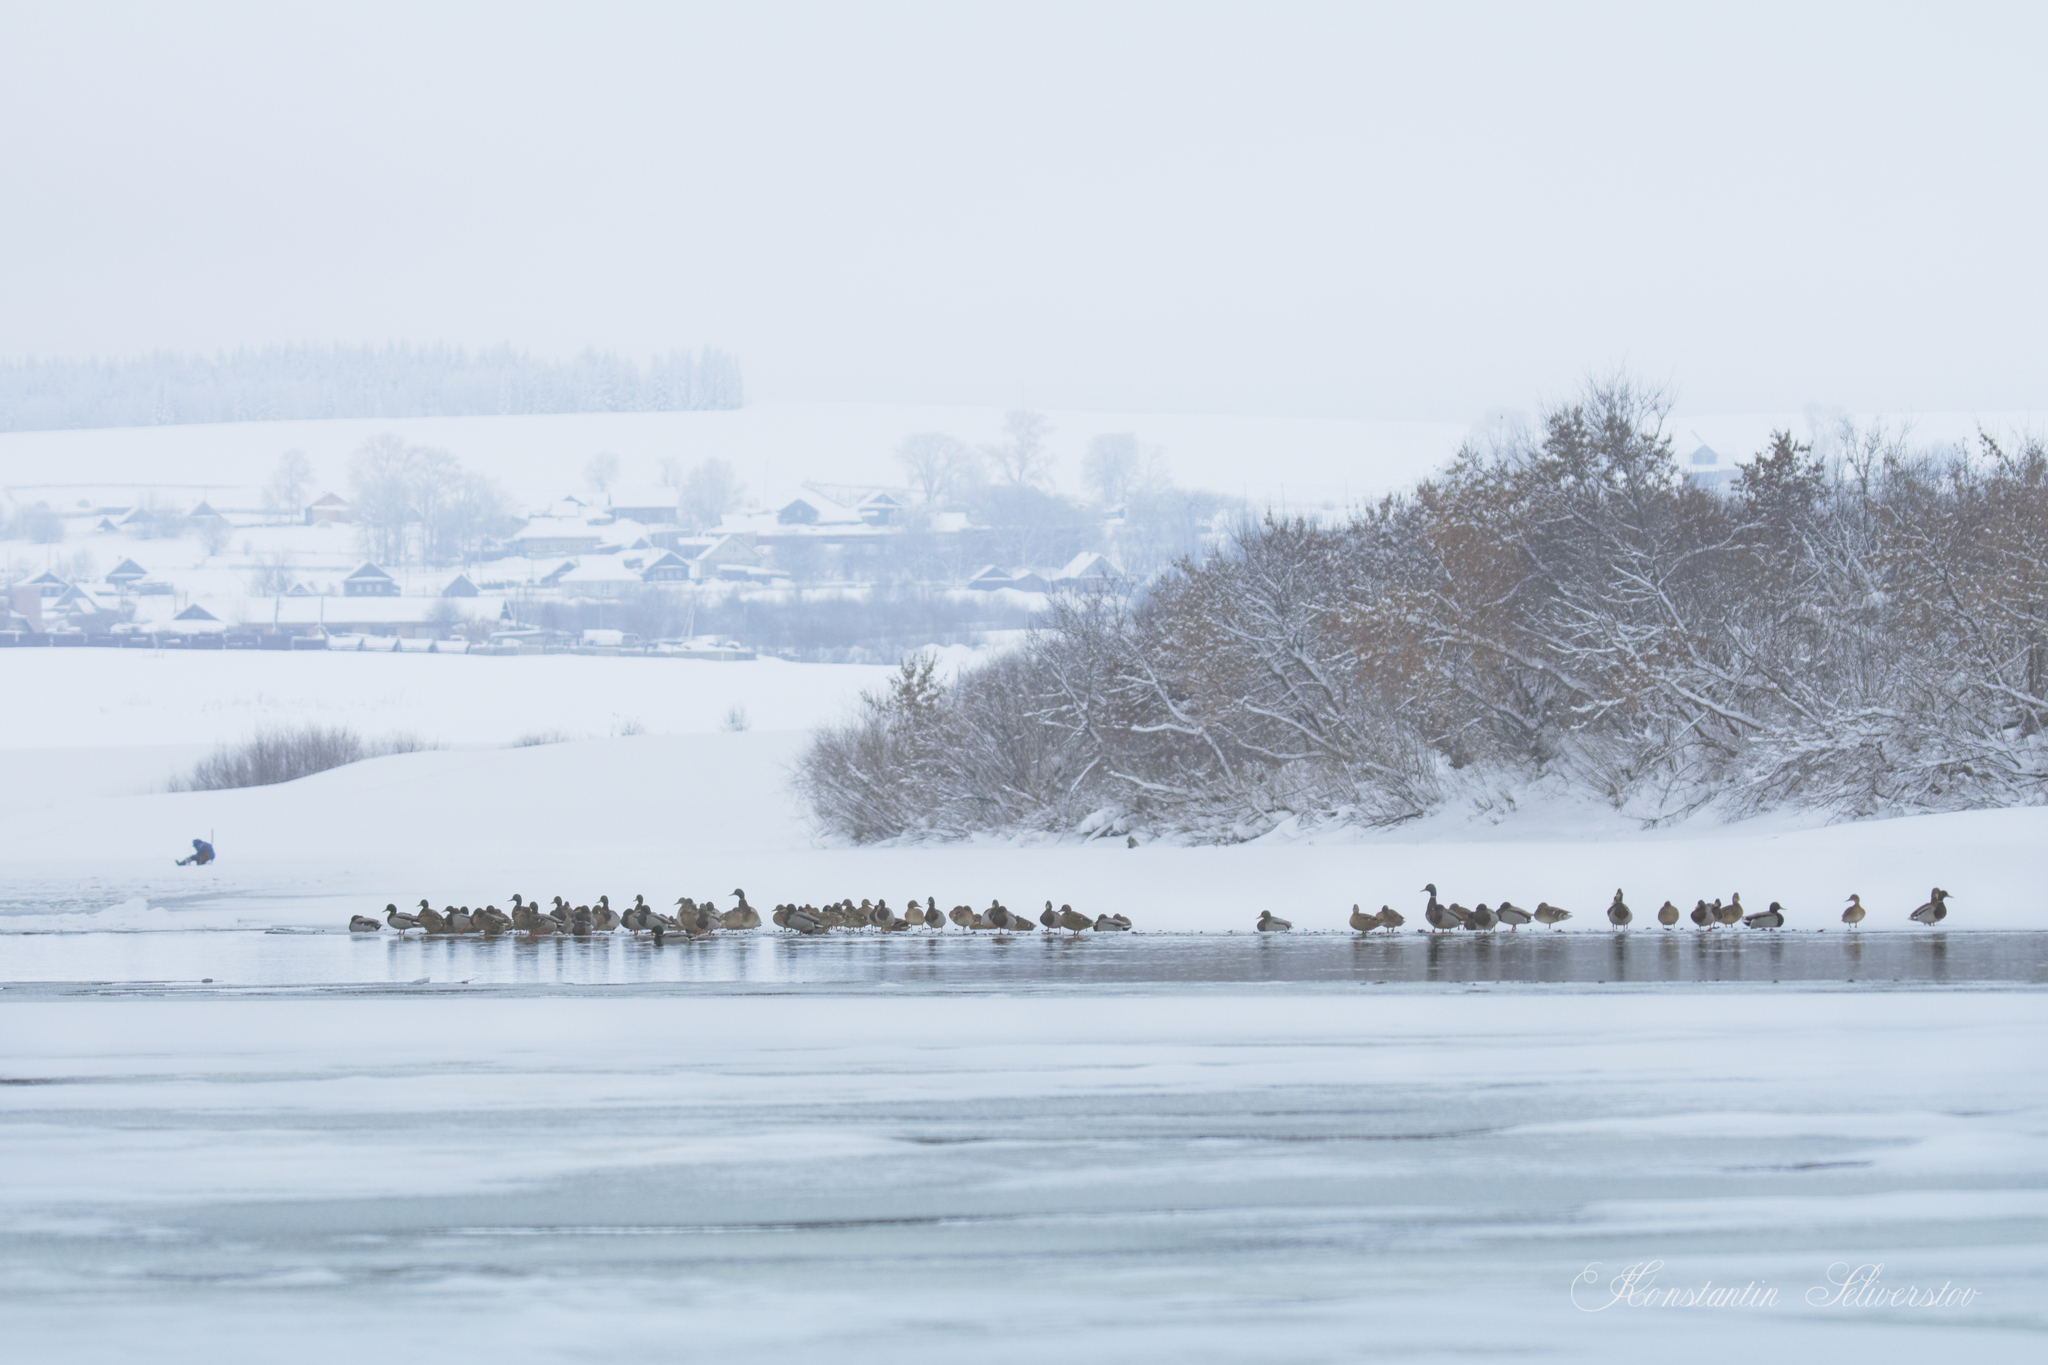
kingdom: Animalia
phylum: Chordata
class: Aves
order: Anseriformes
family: Anatidae
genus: Anas
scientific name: Anas platyrhynchos
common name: Mallard
